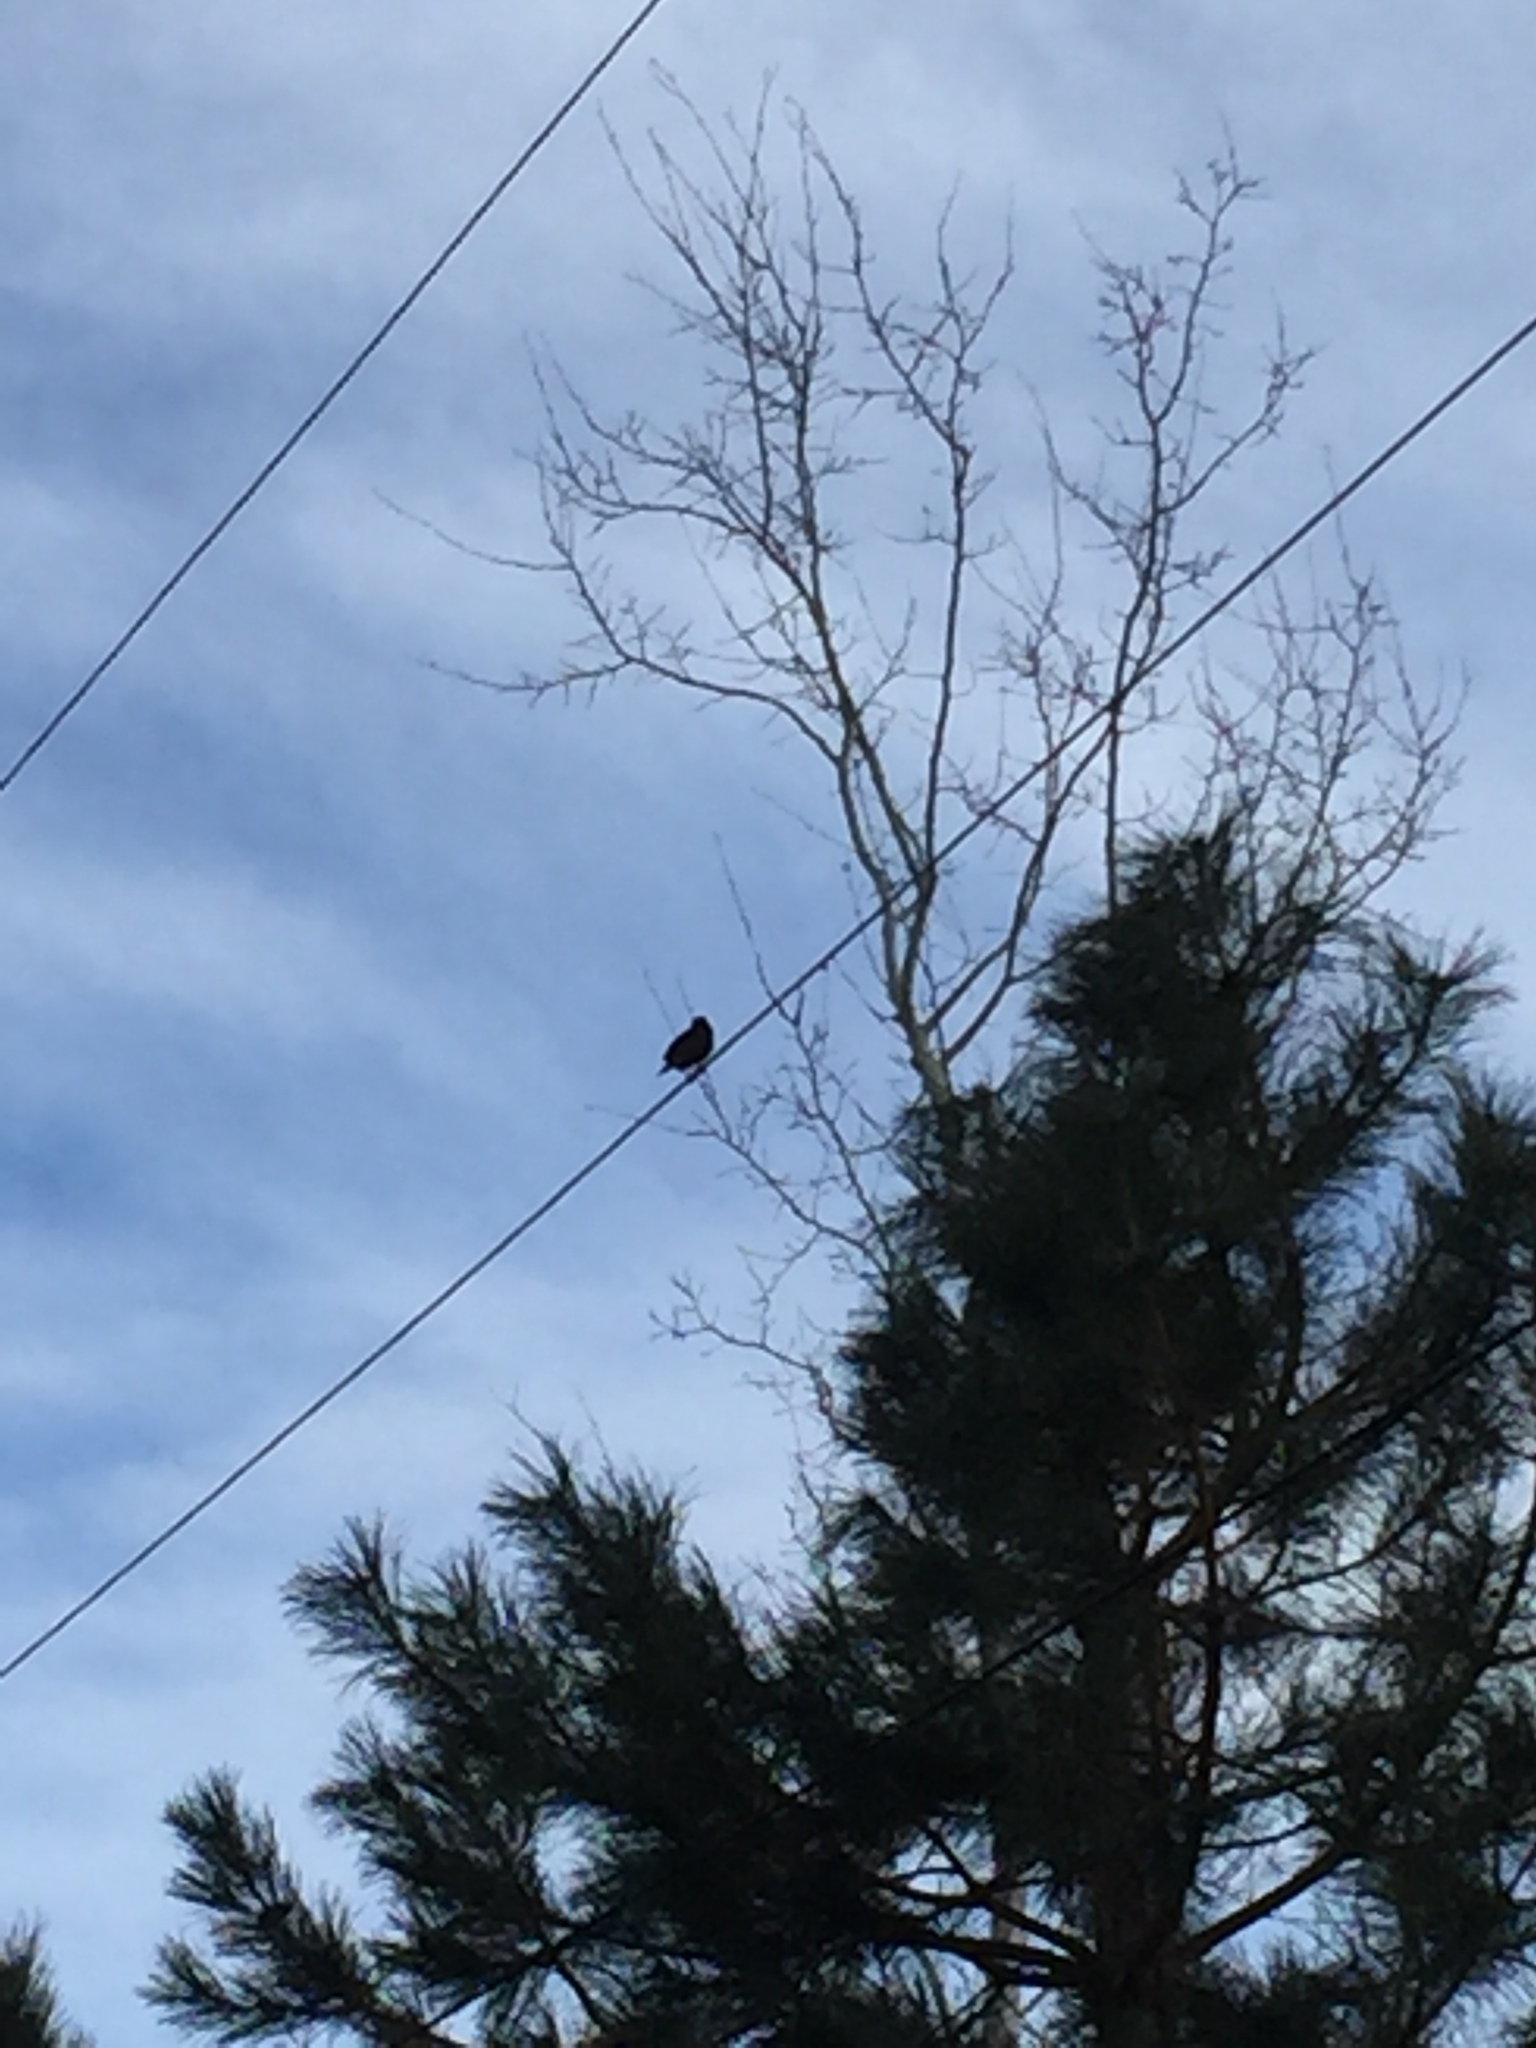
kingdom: Animalia
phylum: Chordata
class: Aves
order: Passeriformes
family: Sturnidae
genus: Sturnus
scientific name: Sturnus vulgaris
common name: Common starling
